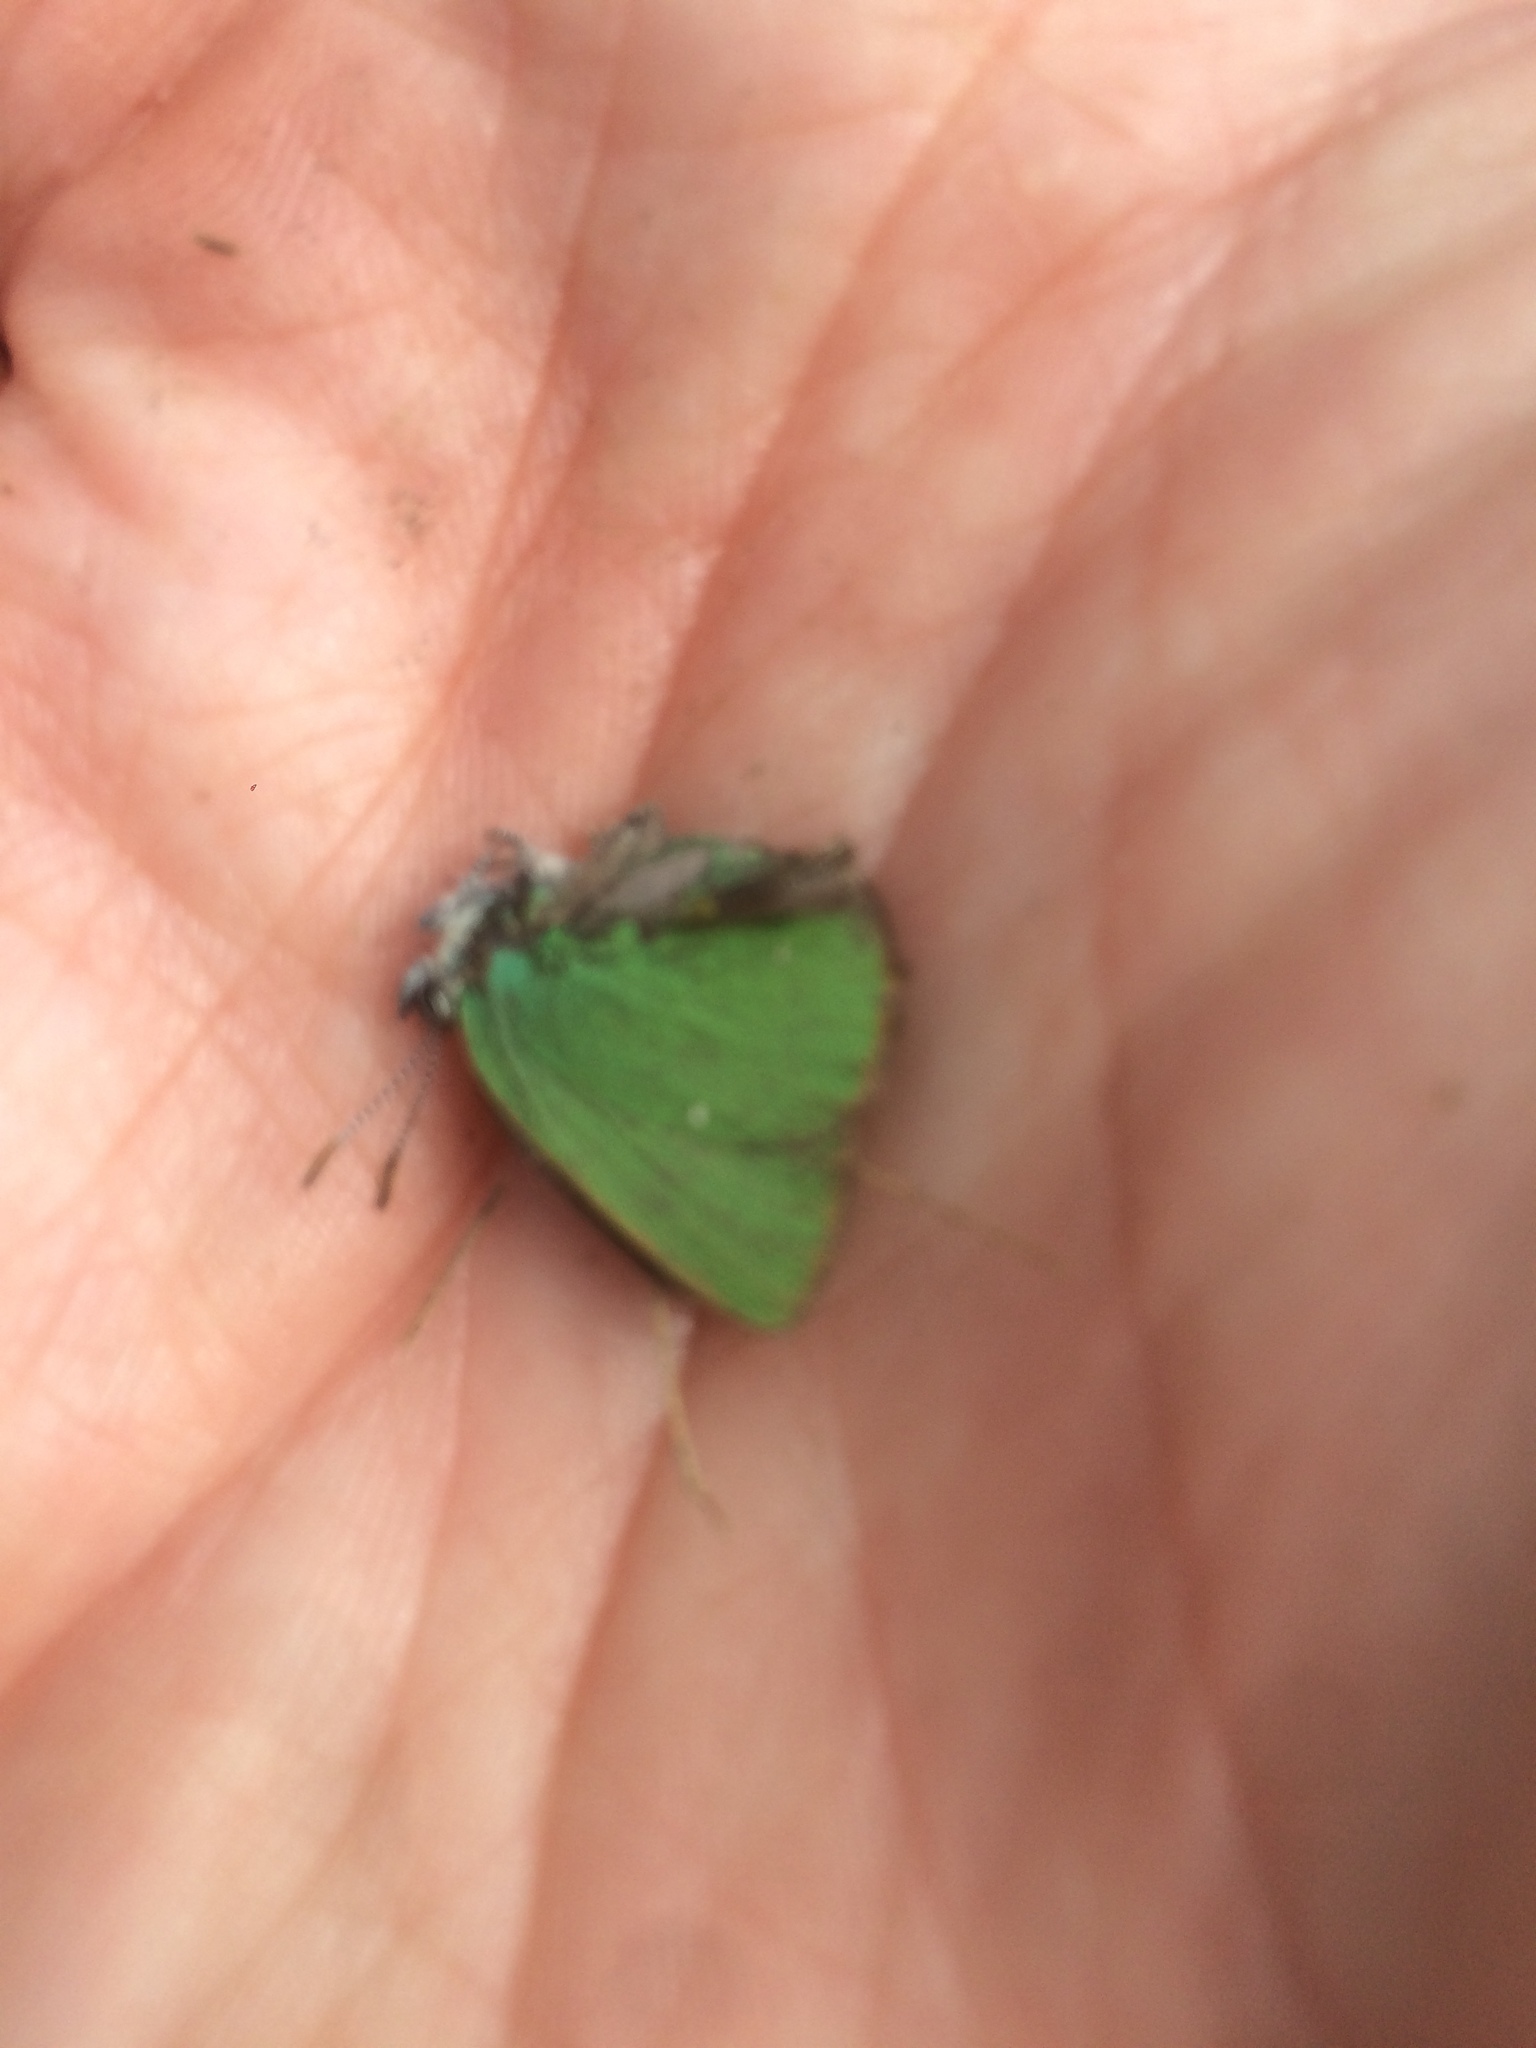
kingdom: Animalia
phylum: Arthropoda
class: Insecta
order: Lepidoptera
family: Lycaenidae
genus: Callophrys
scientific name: Callophrys rubi
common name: Green hairstreak
